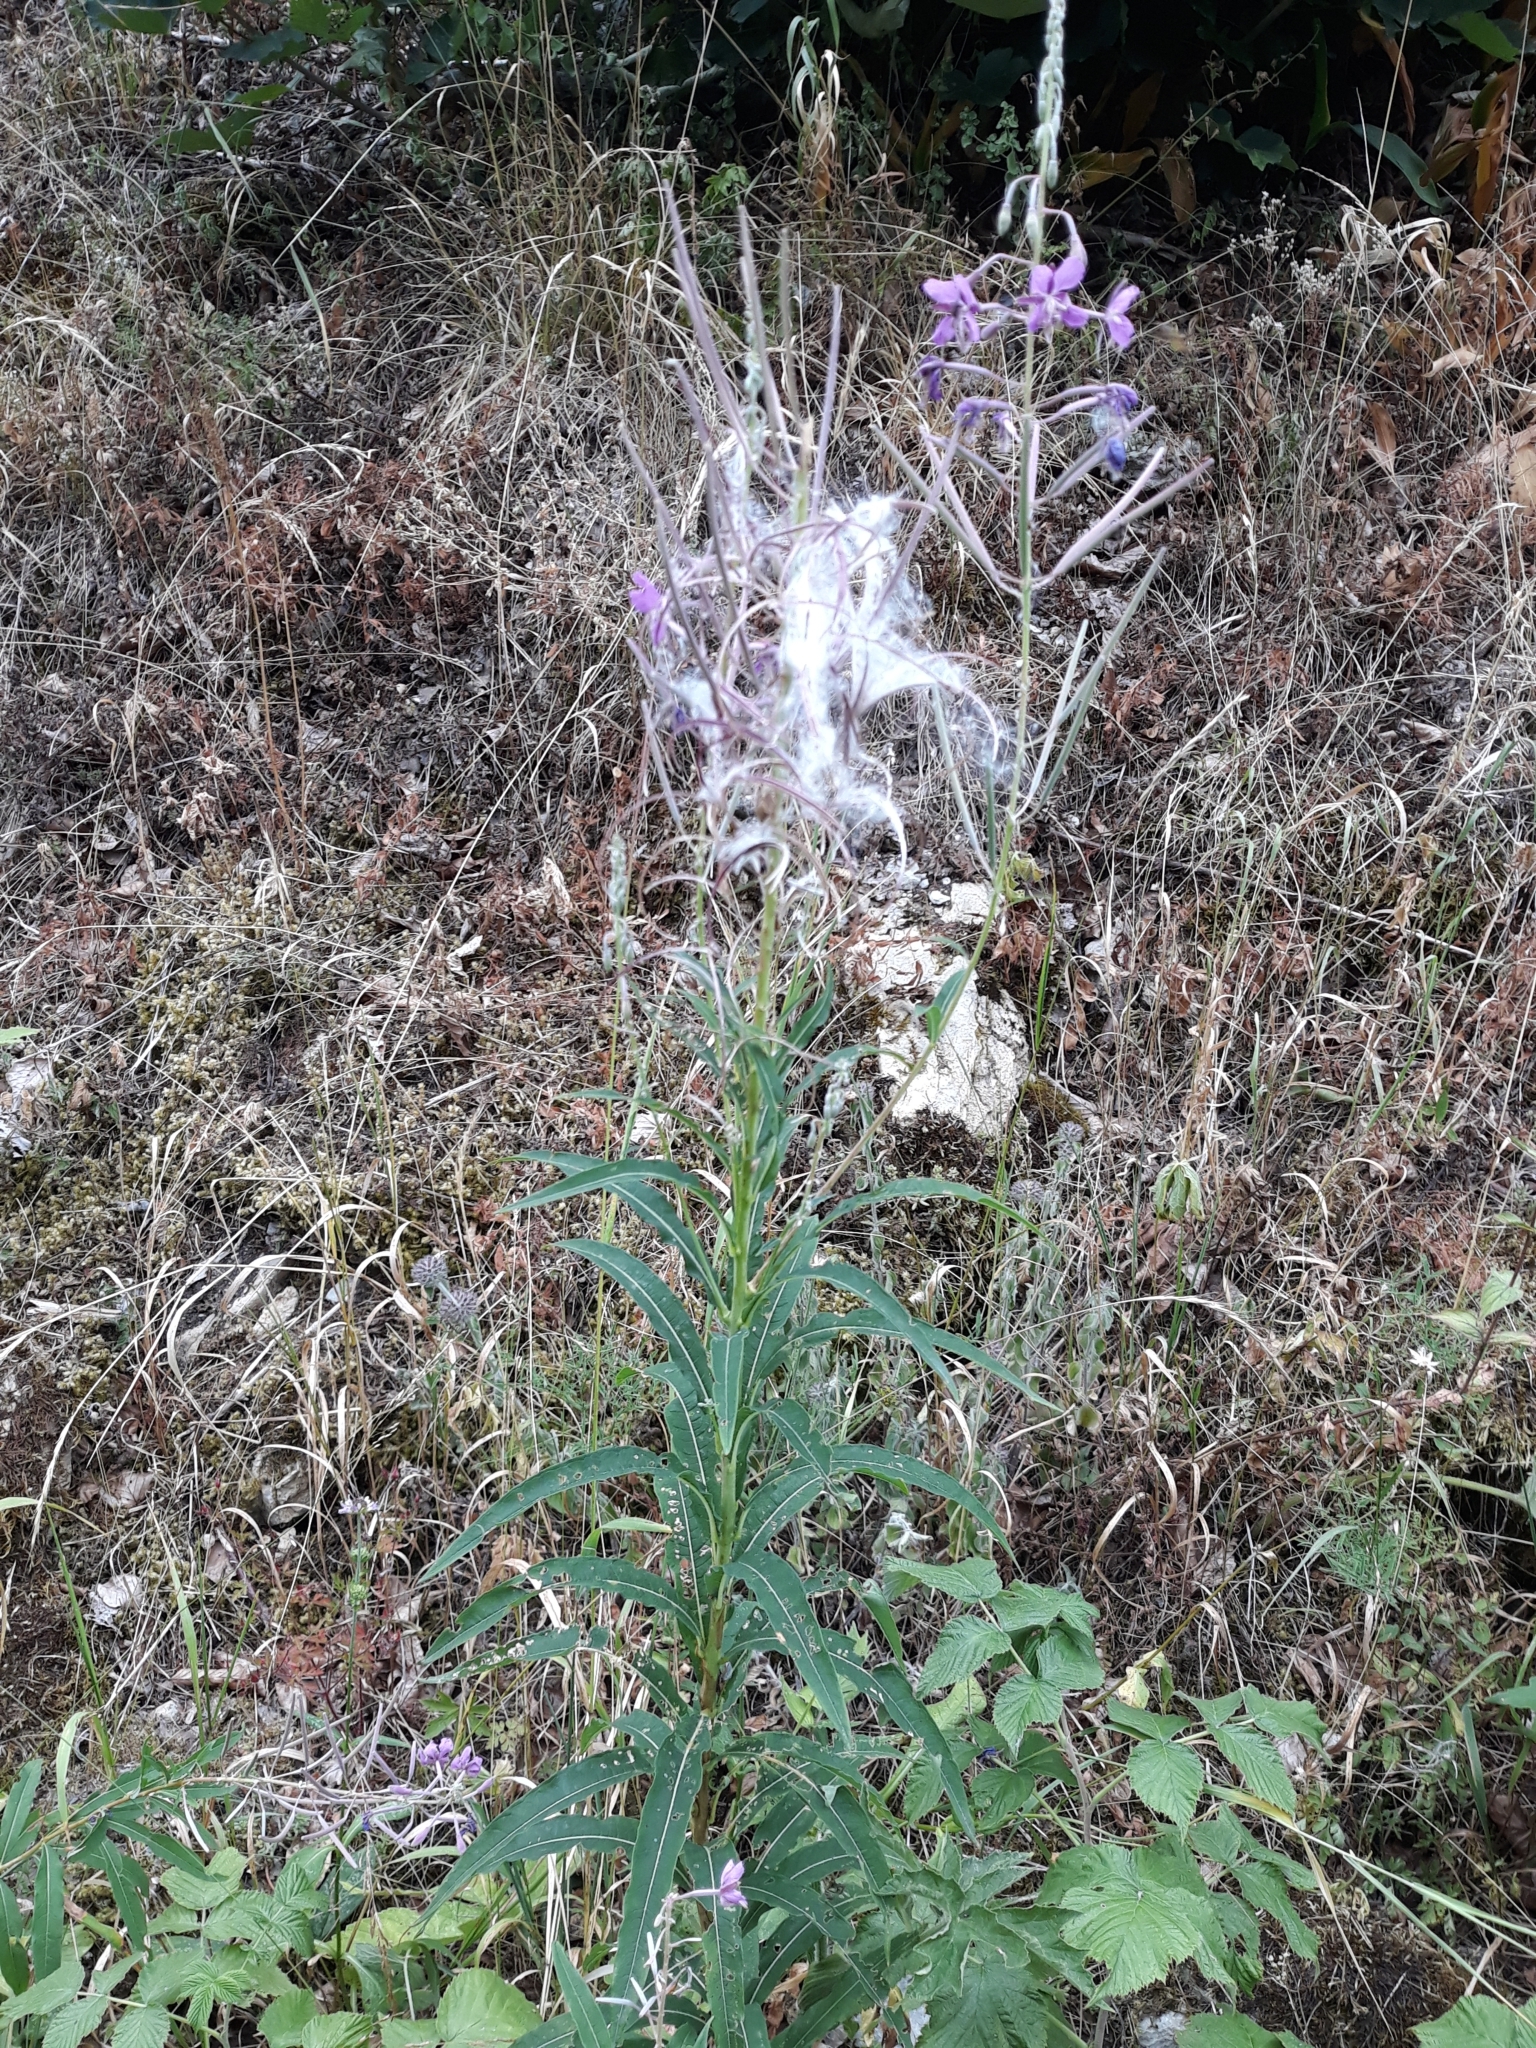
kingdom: Plantae
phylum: Tracheophyta
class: Magnoliopsida
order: Myrtales
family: Onagraceae
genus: Chamaenerion
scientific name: Chamaenerion angustifolium
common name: Fireweed
